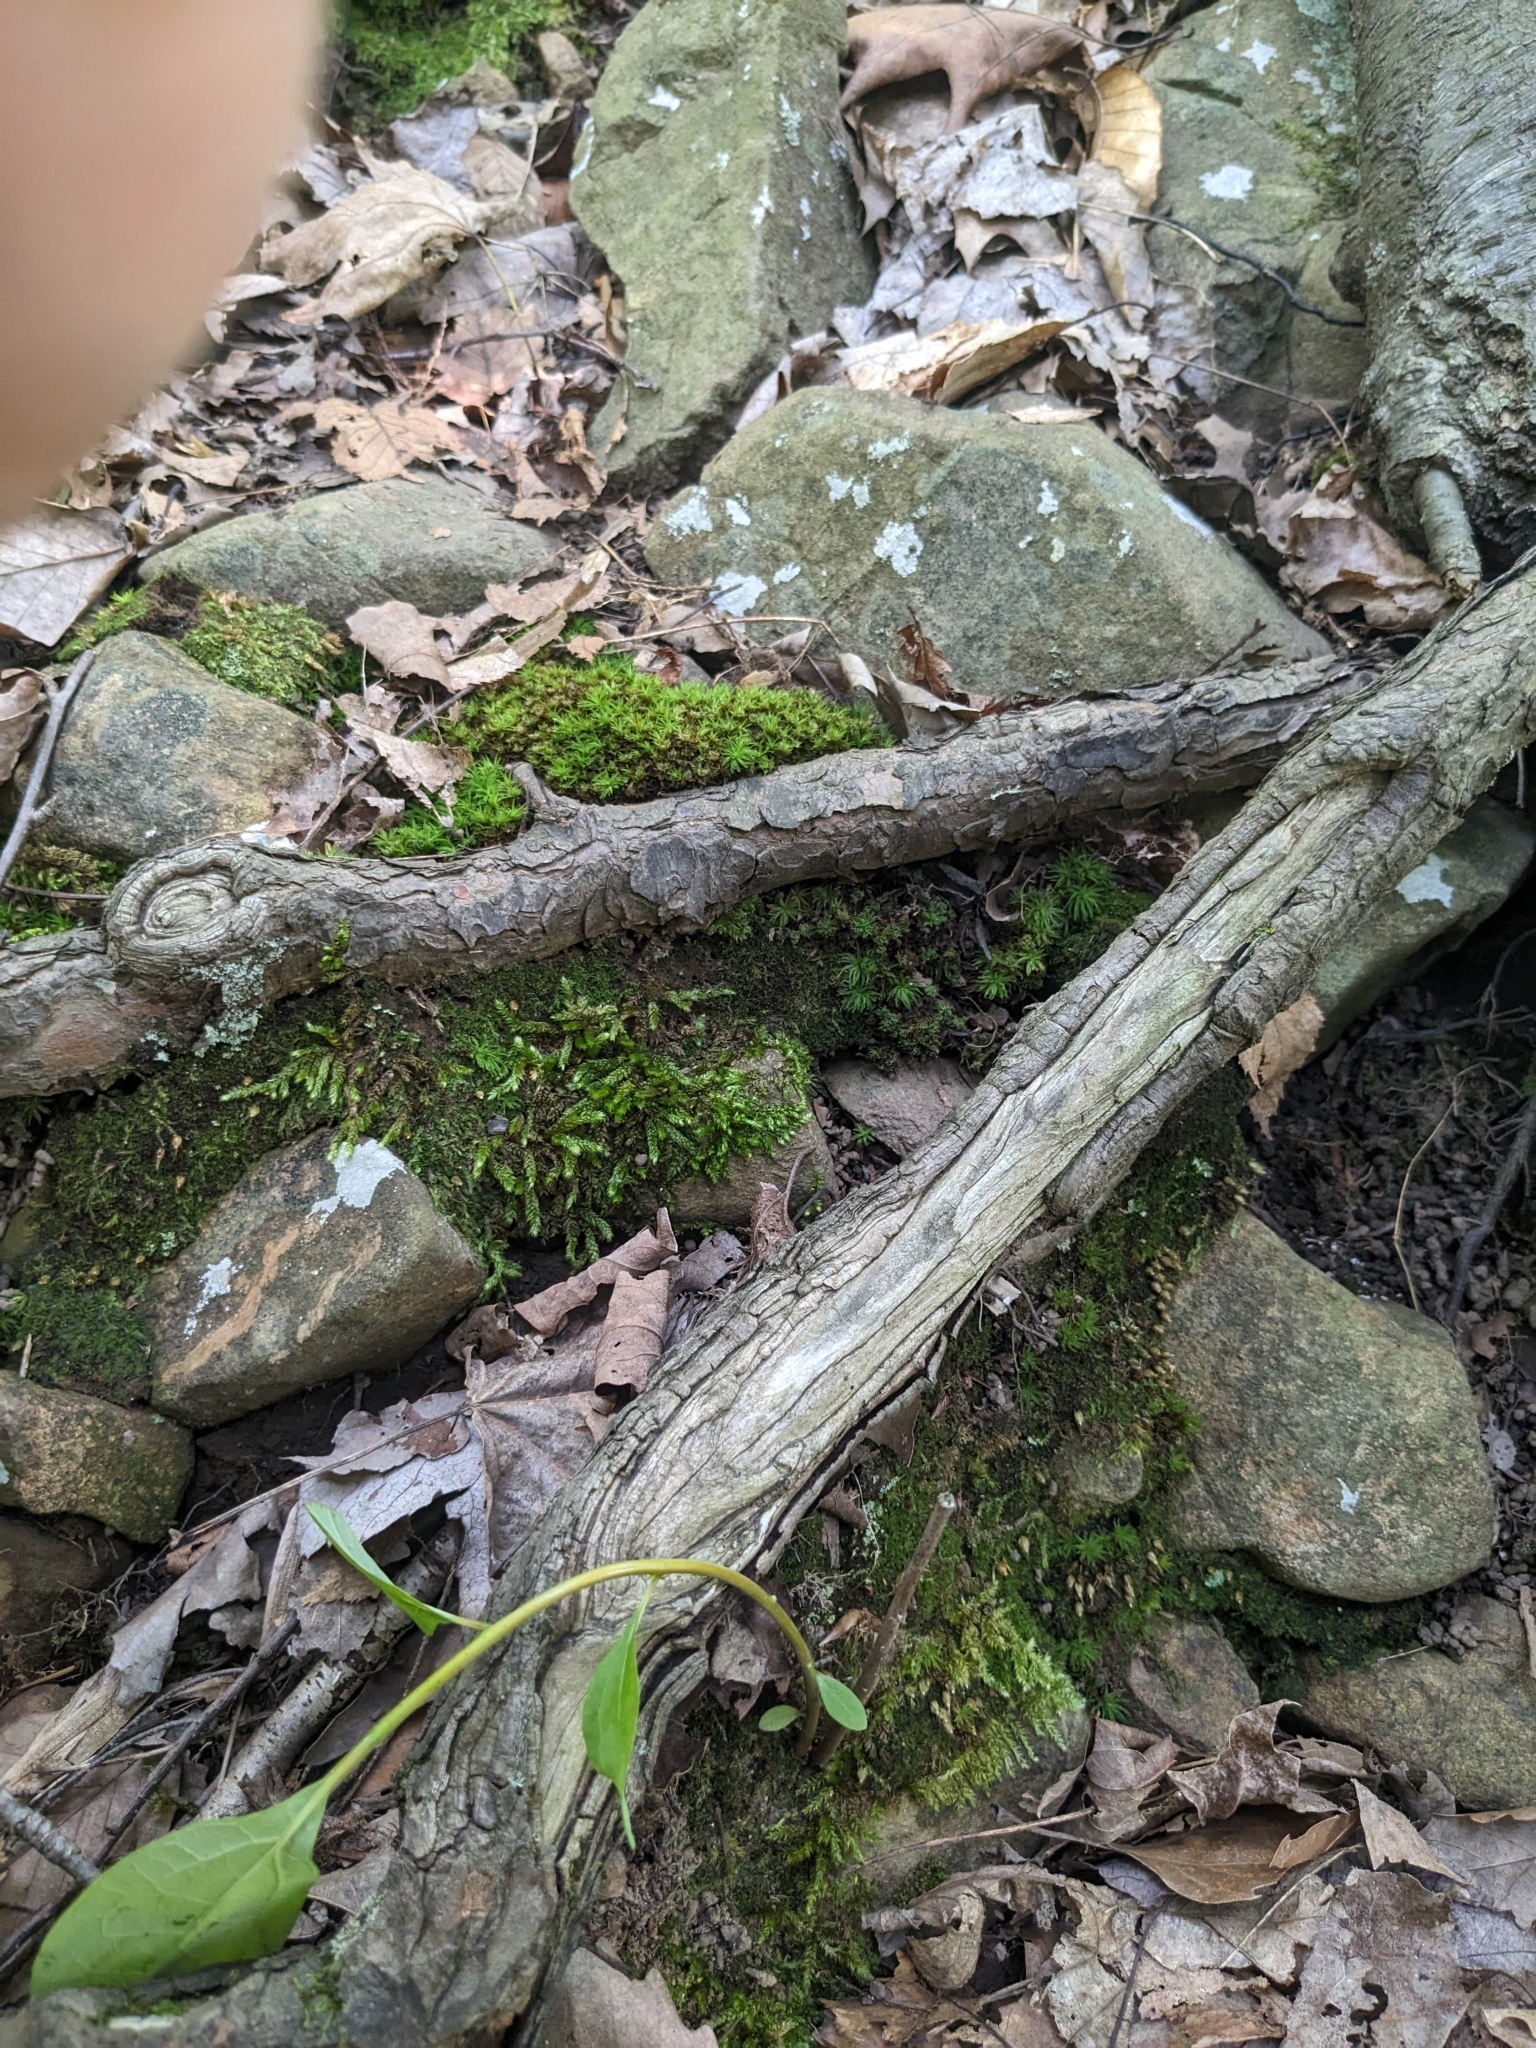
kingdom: Plantae
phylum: Bryophyta
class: Bryopsida
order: Diphysciales
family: Diphysciaceae
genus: Diphyscium
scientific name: Diphyscium foliosum
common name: Nut moss
